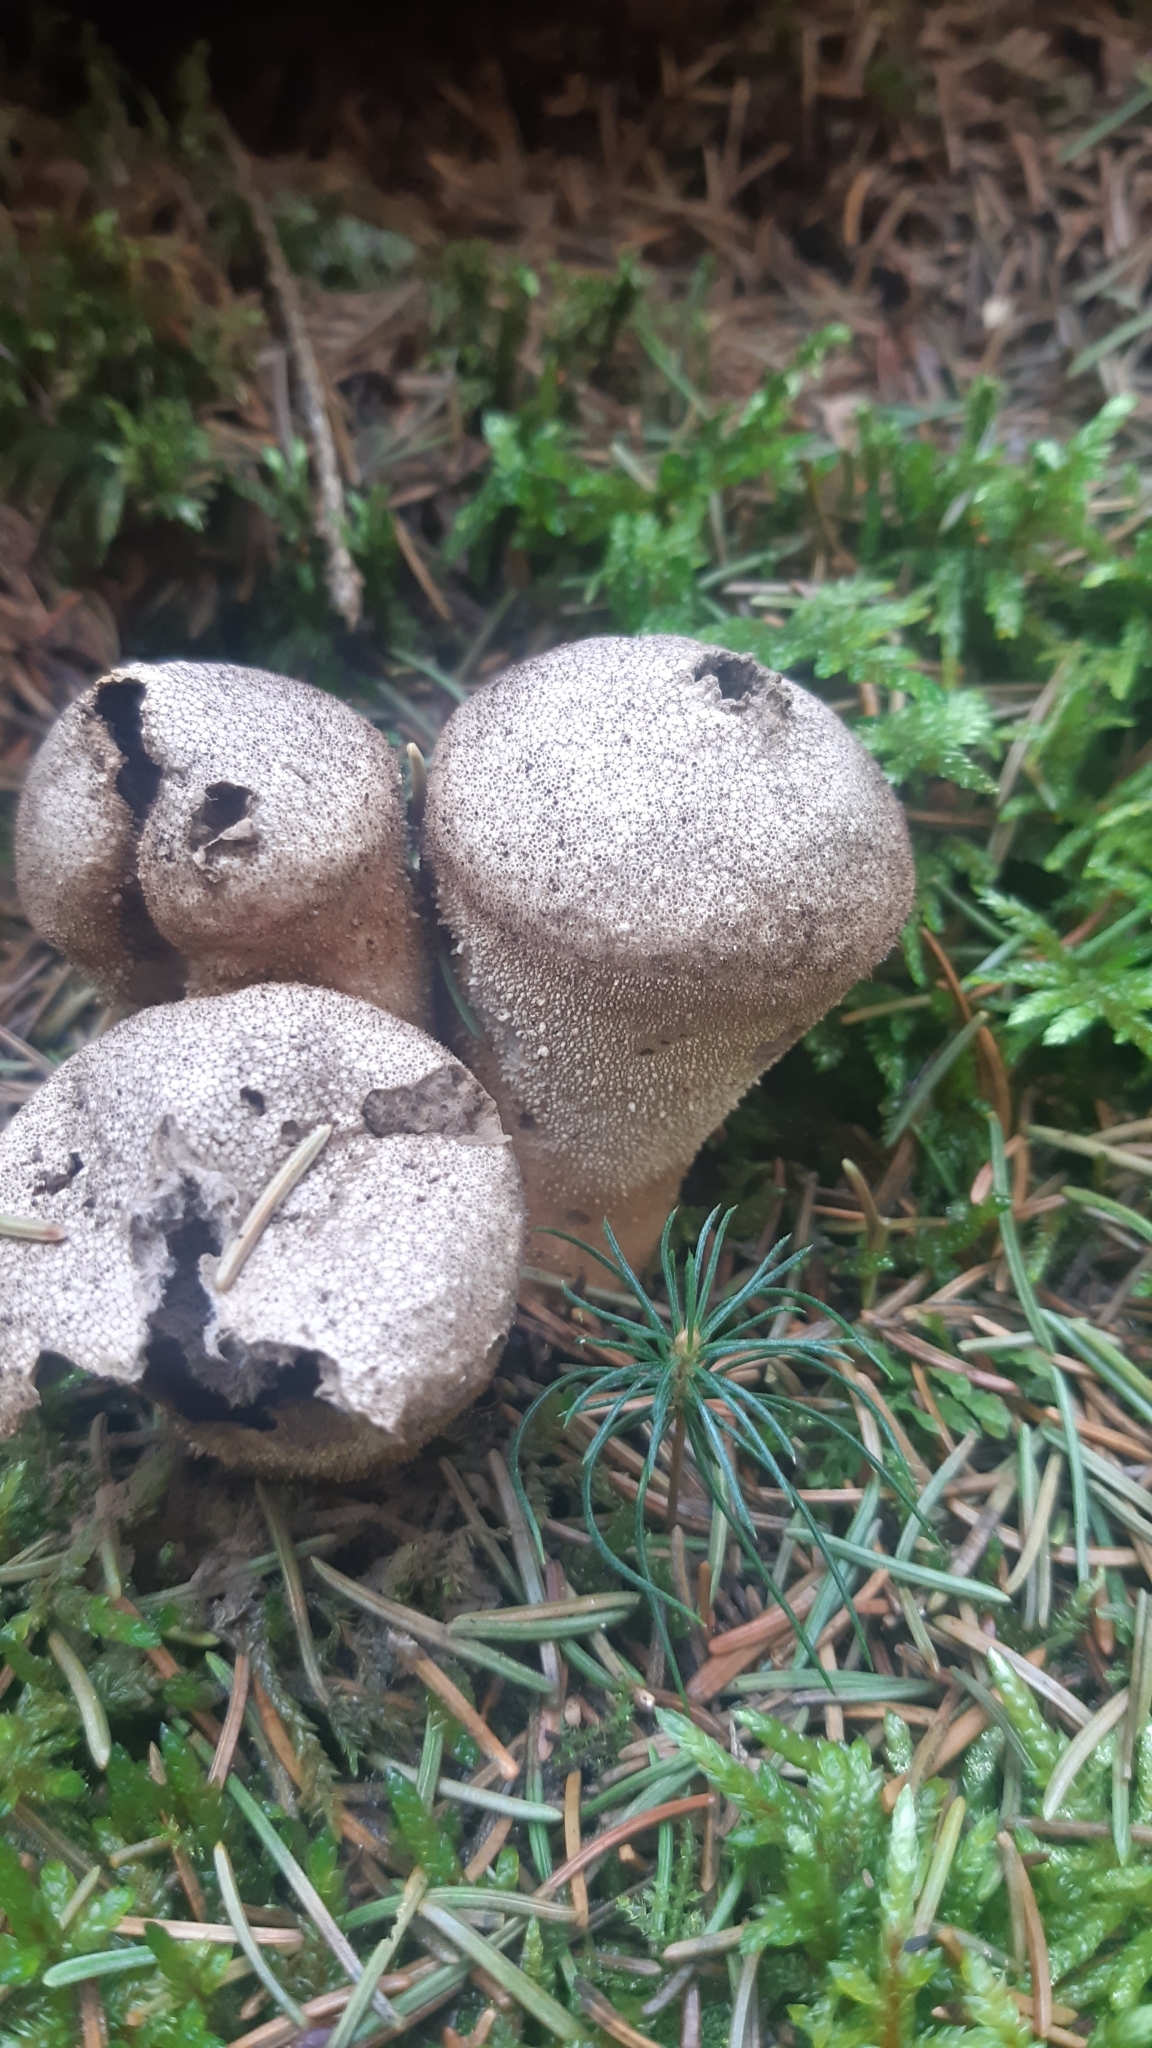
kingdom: Fungi
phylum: Basidiomycota
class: Agaricomycetes
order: Agaricales
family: Lycoperdaceae
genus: Lycoperdon
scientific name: Lycoperdon perlatum
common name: Common puffball
